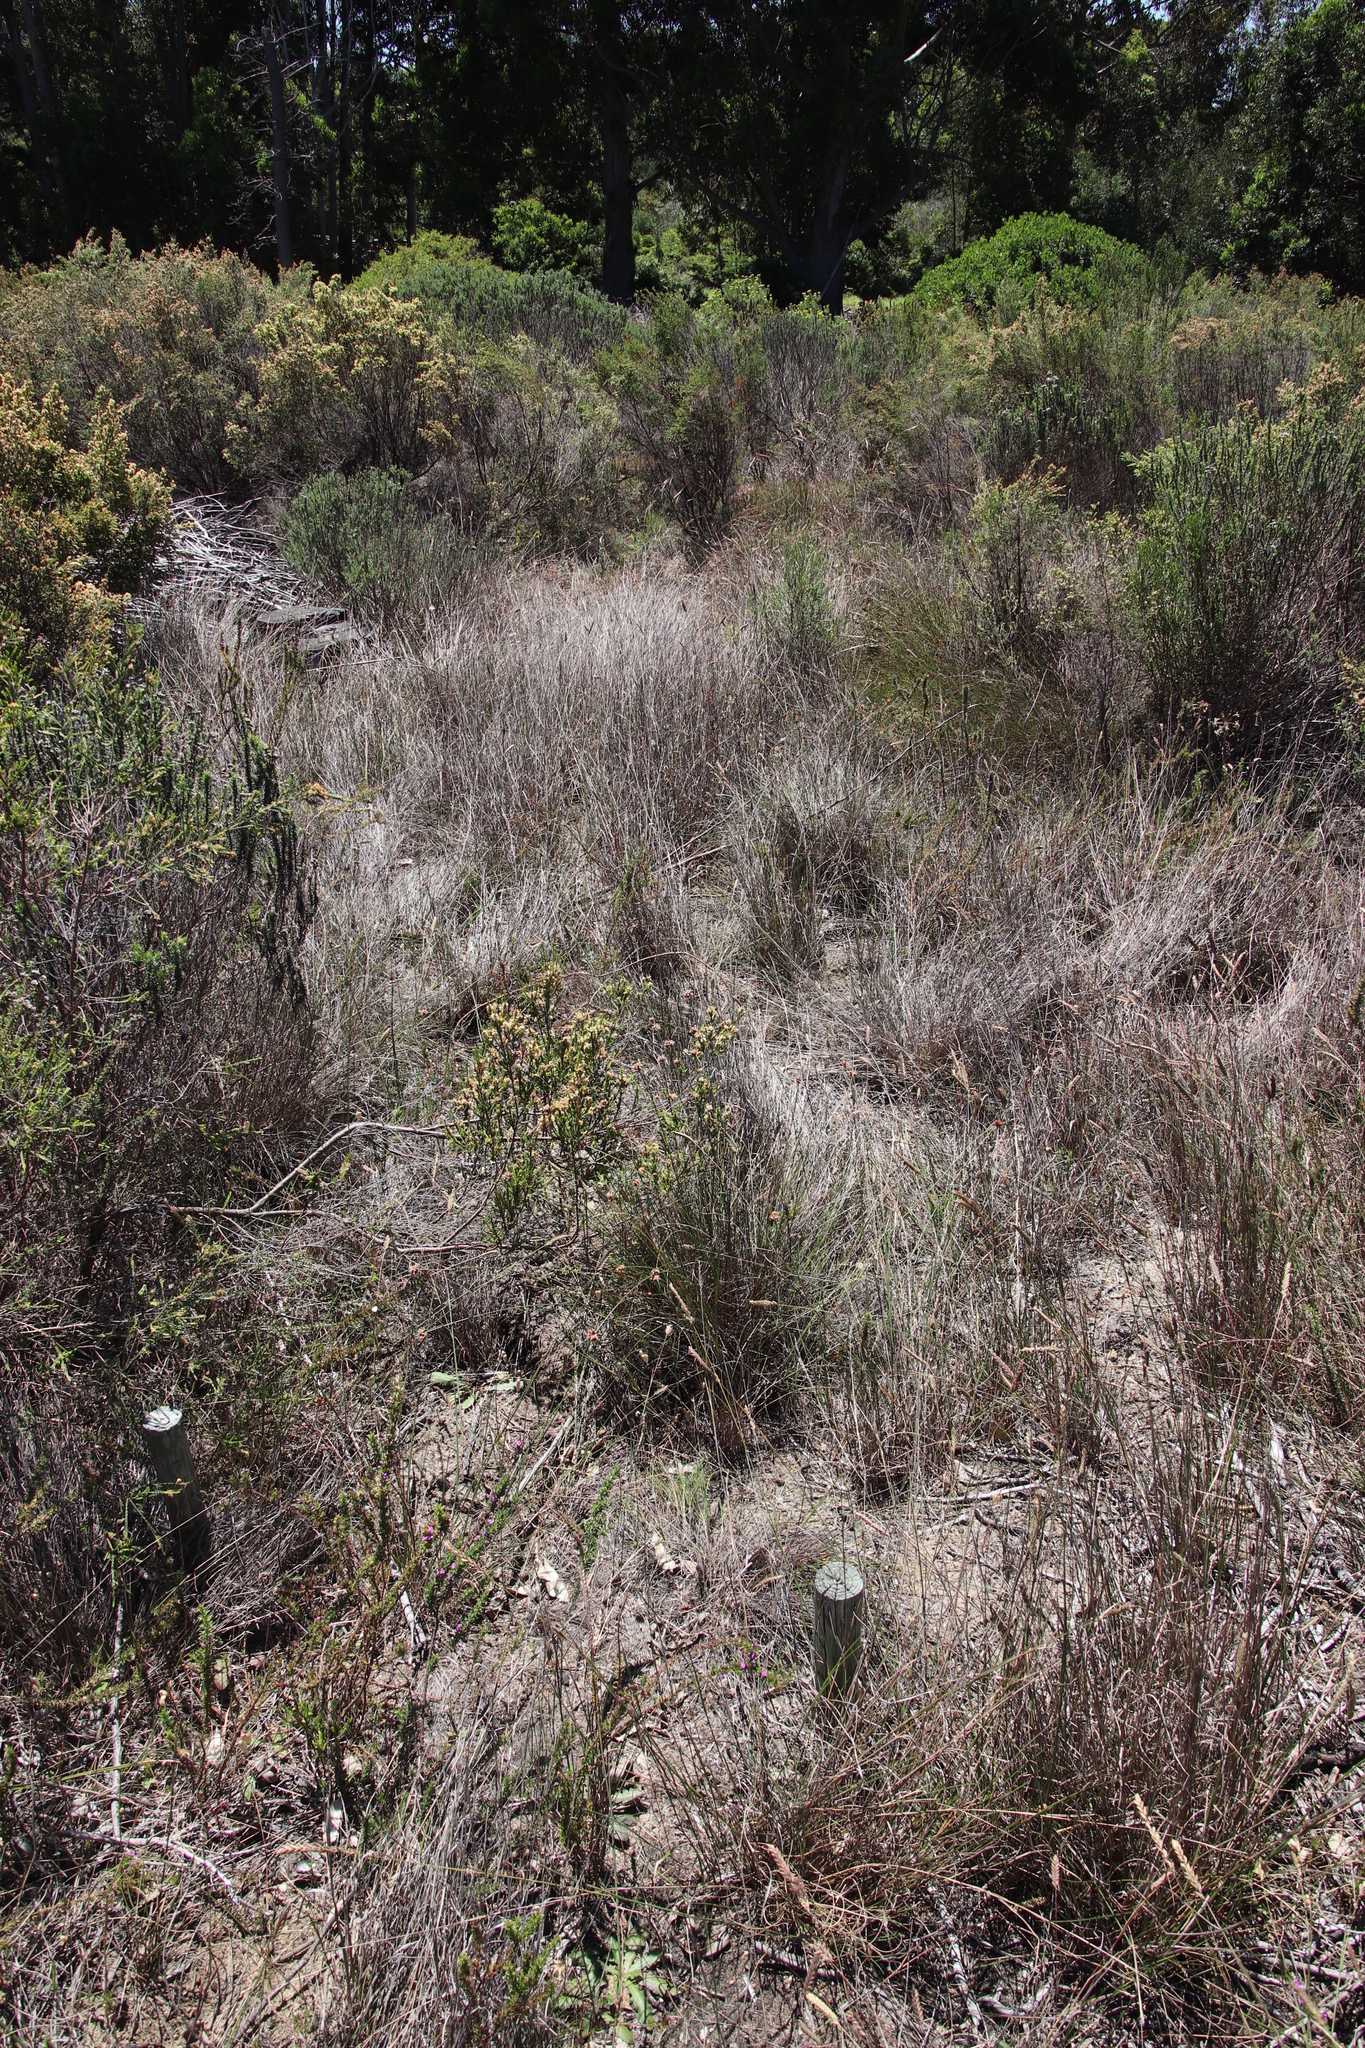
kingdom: Plantae
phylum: Tracheophyta
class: Liliopsida
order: Poales
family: Poaceae
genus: Tribolium
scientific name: Tribolium uniolae
